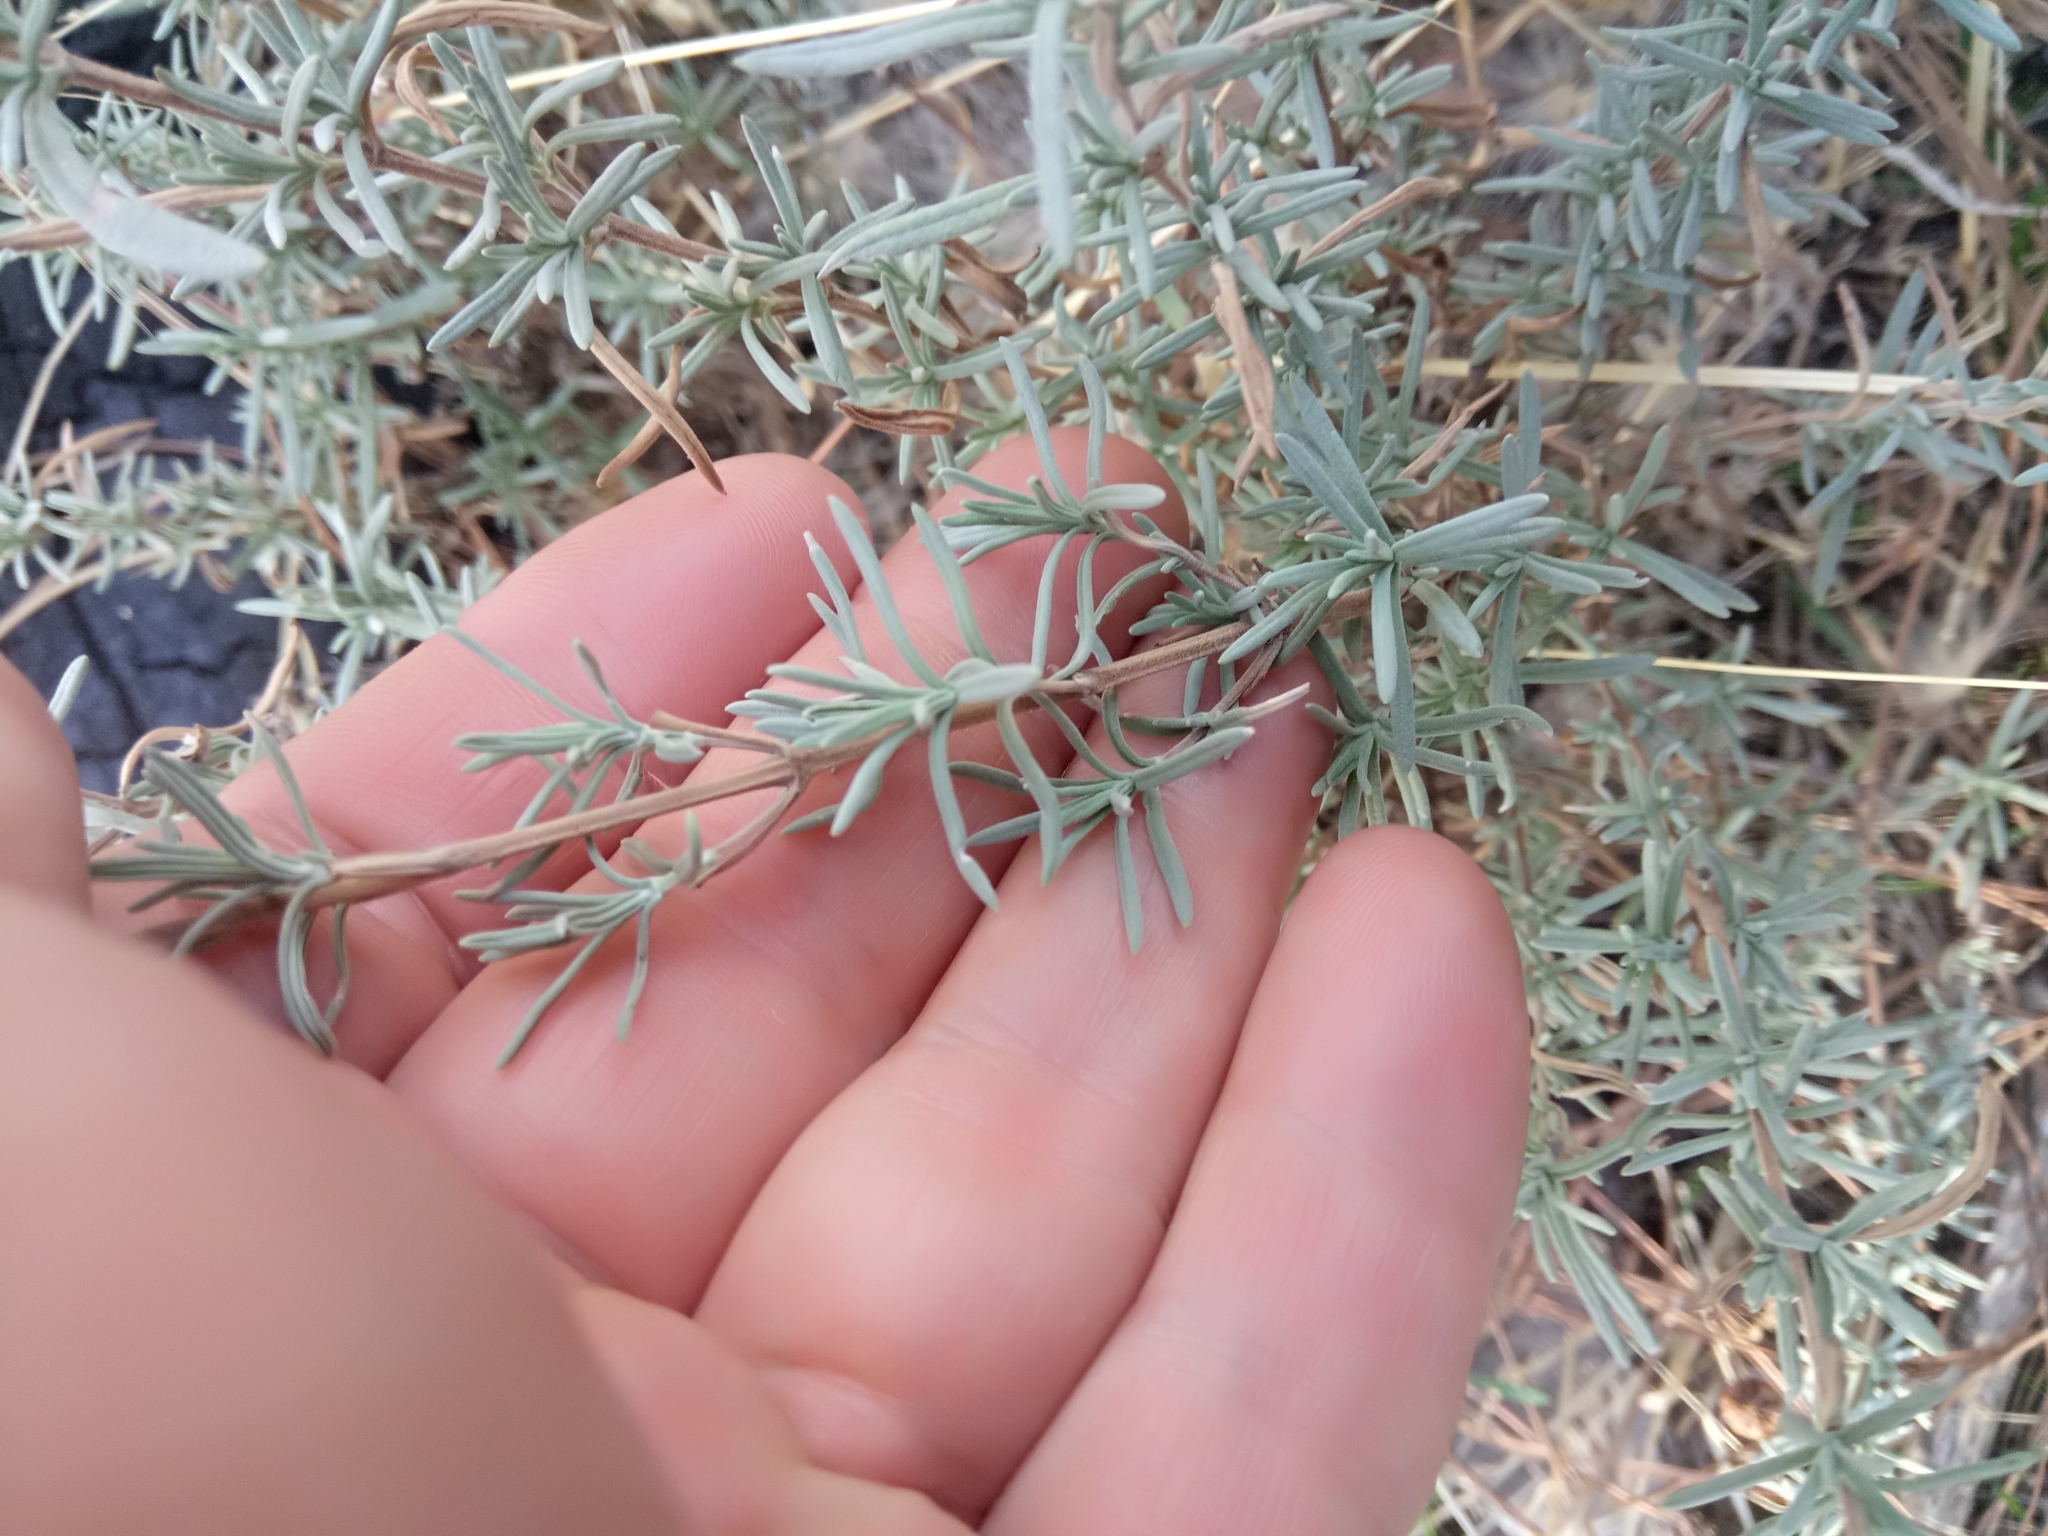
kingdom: Plantae
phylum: Tracheophyta
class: Magnoliopsida
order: Lamiales
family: Lamiaceae
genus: Lavandula
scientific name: Lavandula stoechas
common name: French lavender
